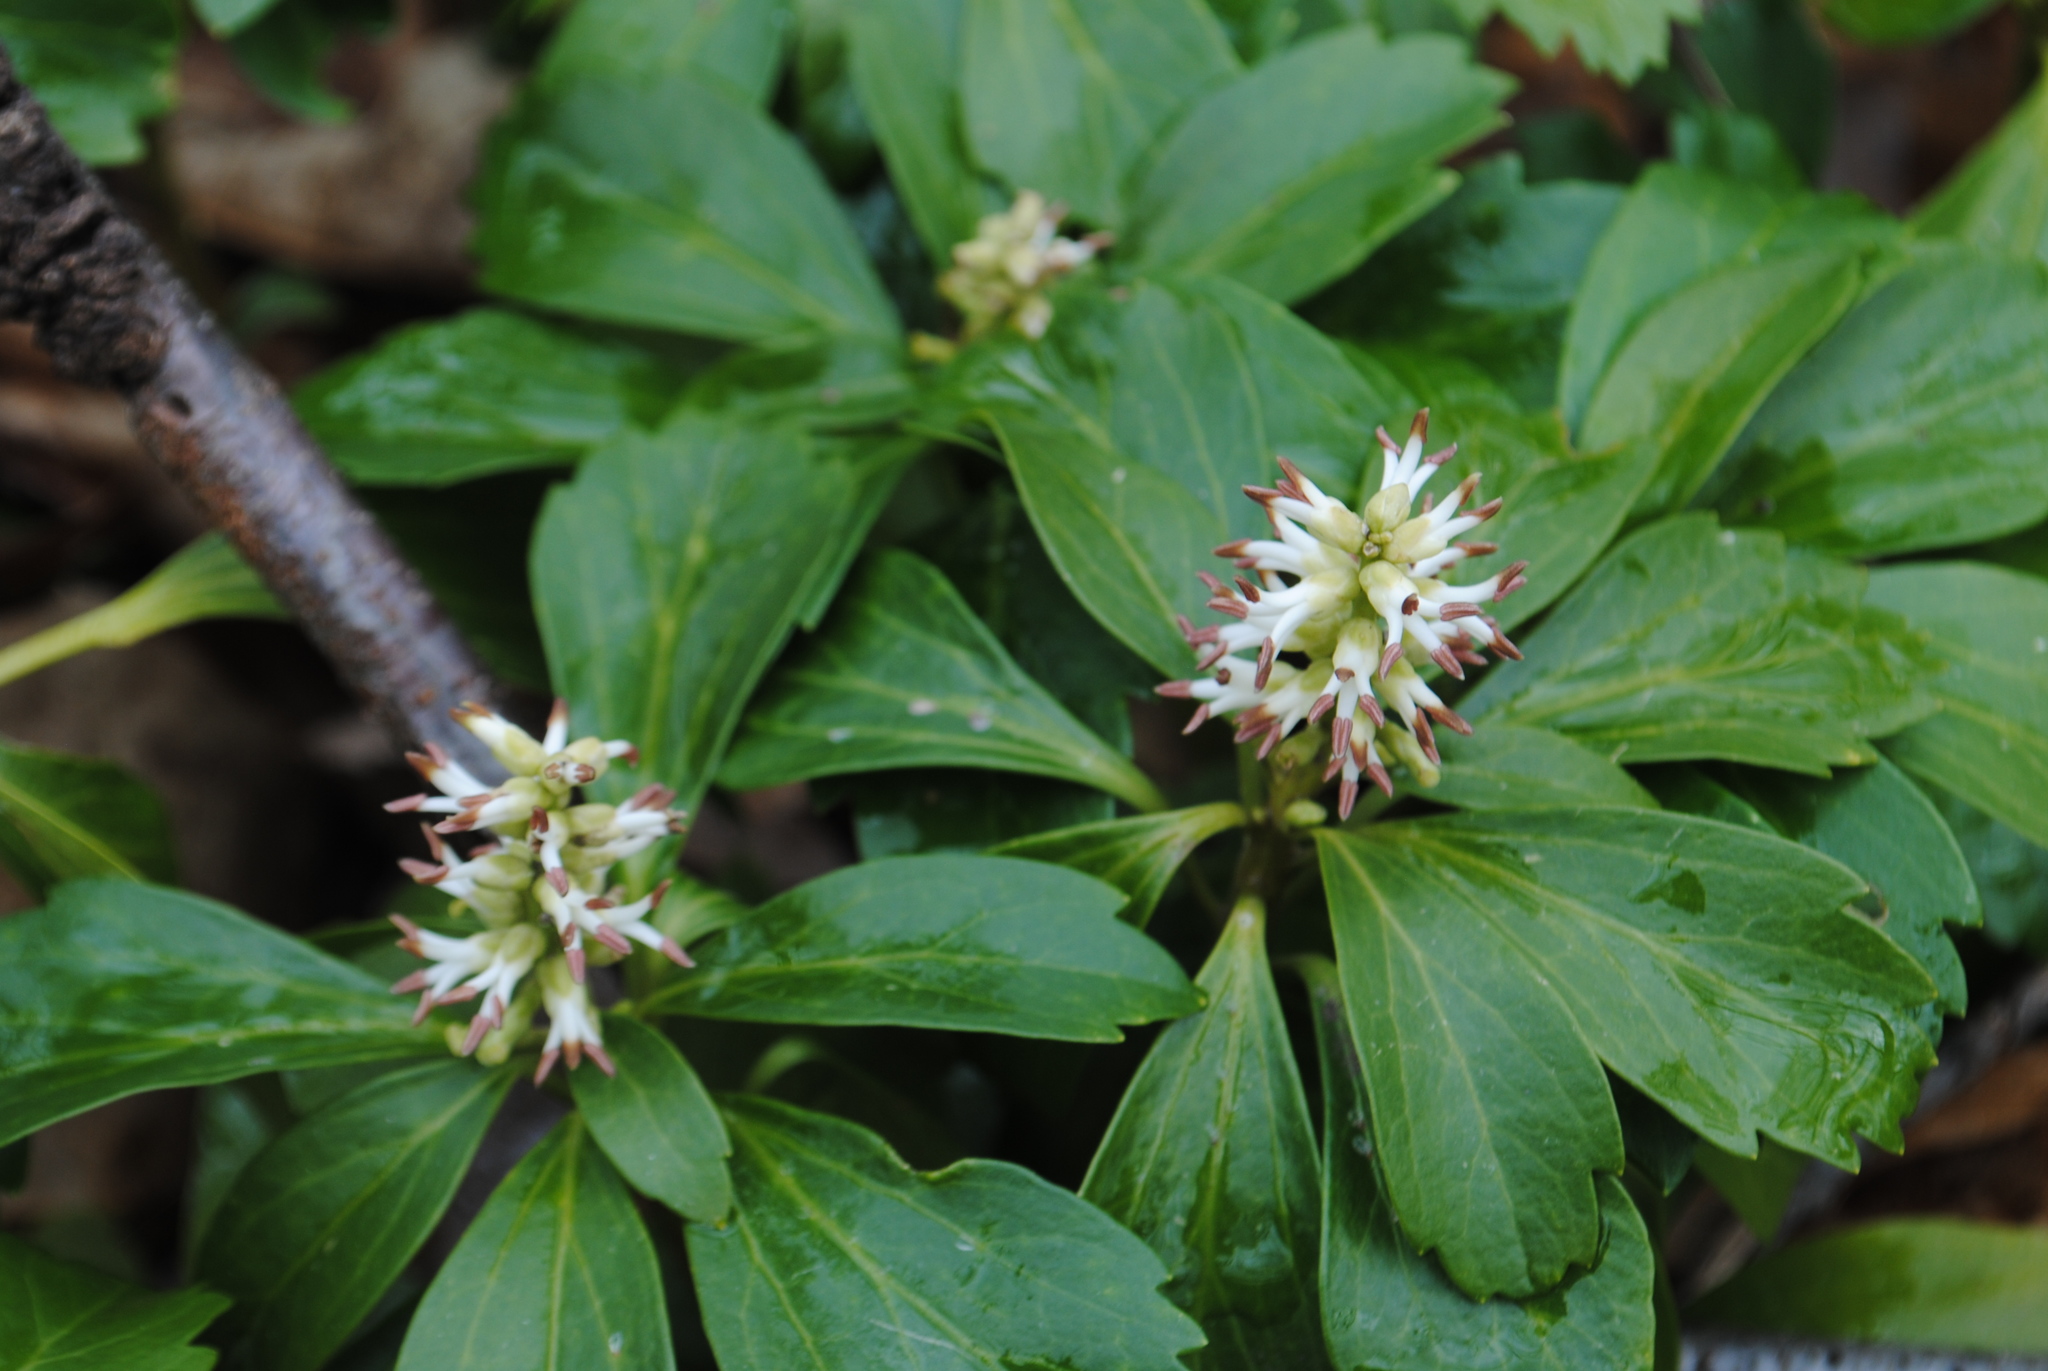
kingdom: Plantae
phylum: Tracheophyta
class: Magnoliopsida
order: Buxales
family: Buxaceae
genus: Pachysandra
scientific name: Pachysandra terminalis
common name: Japanese pachysandra
